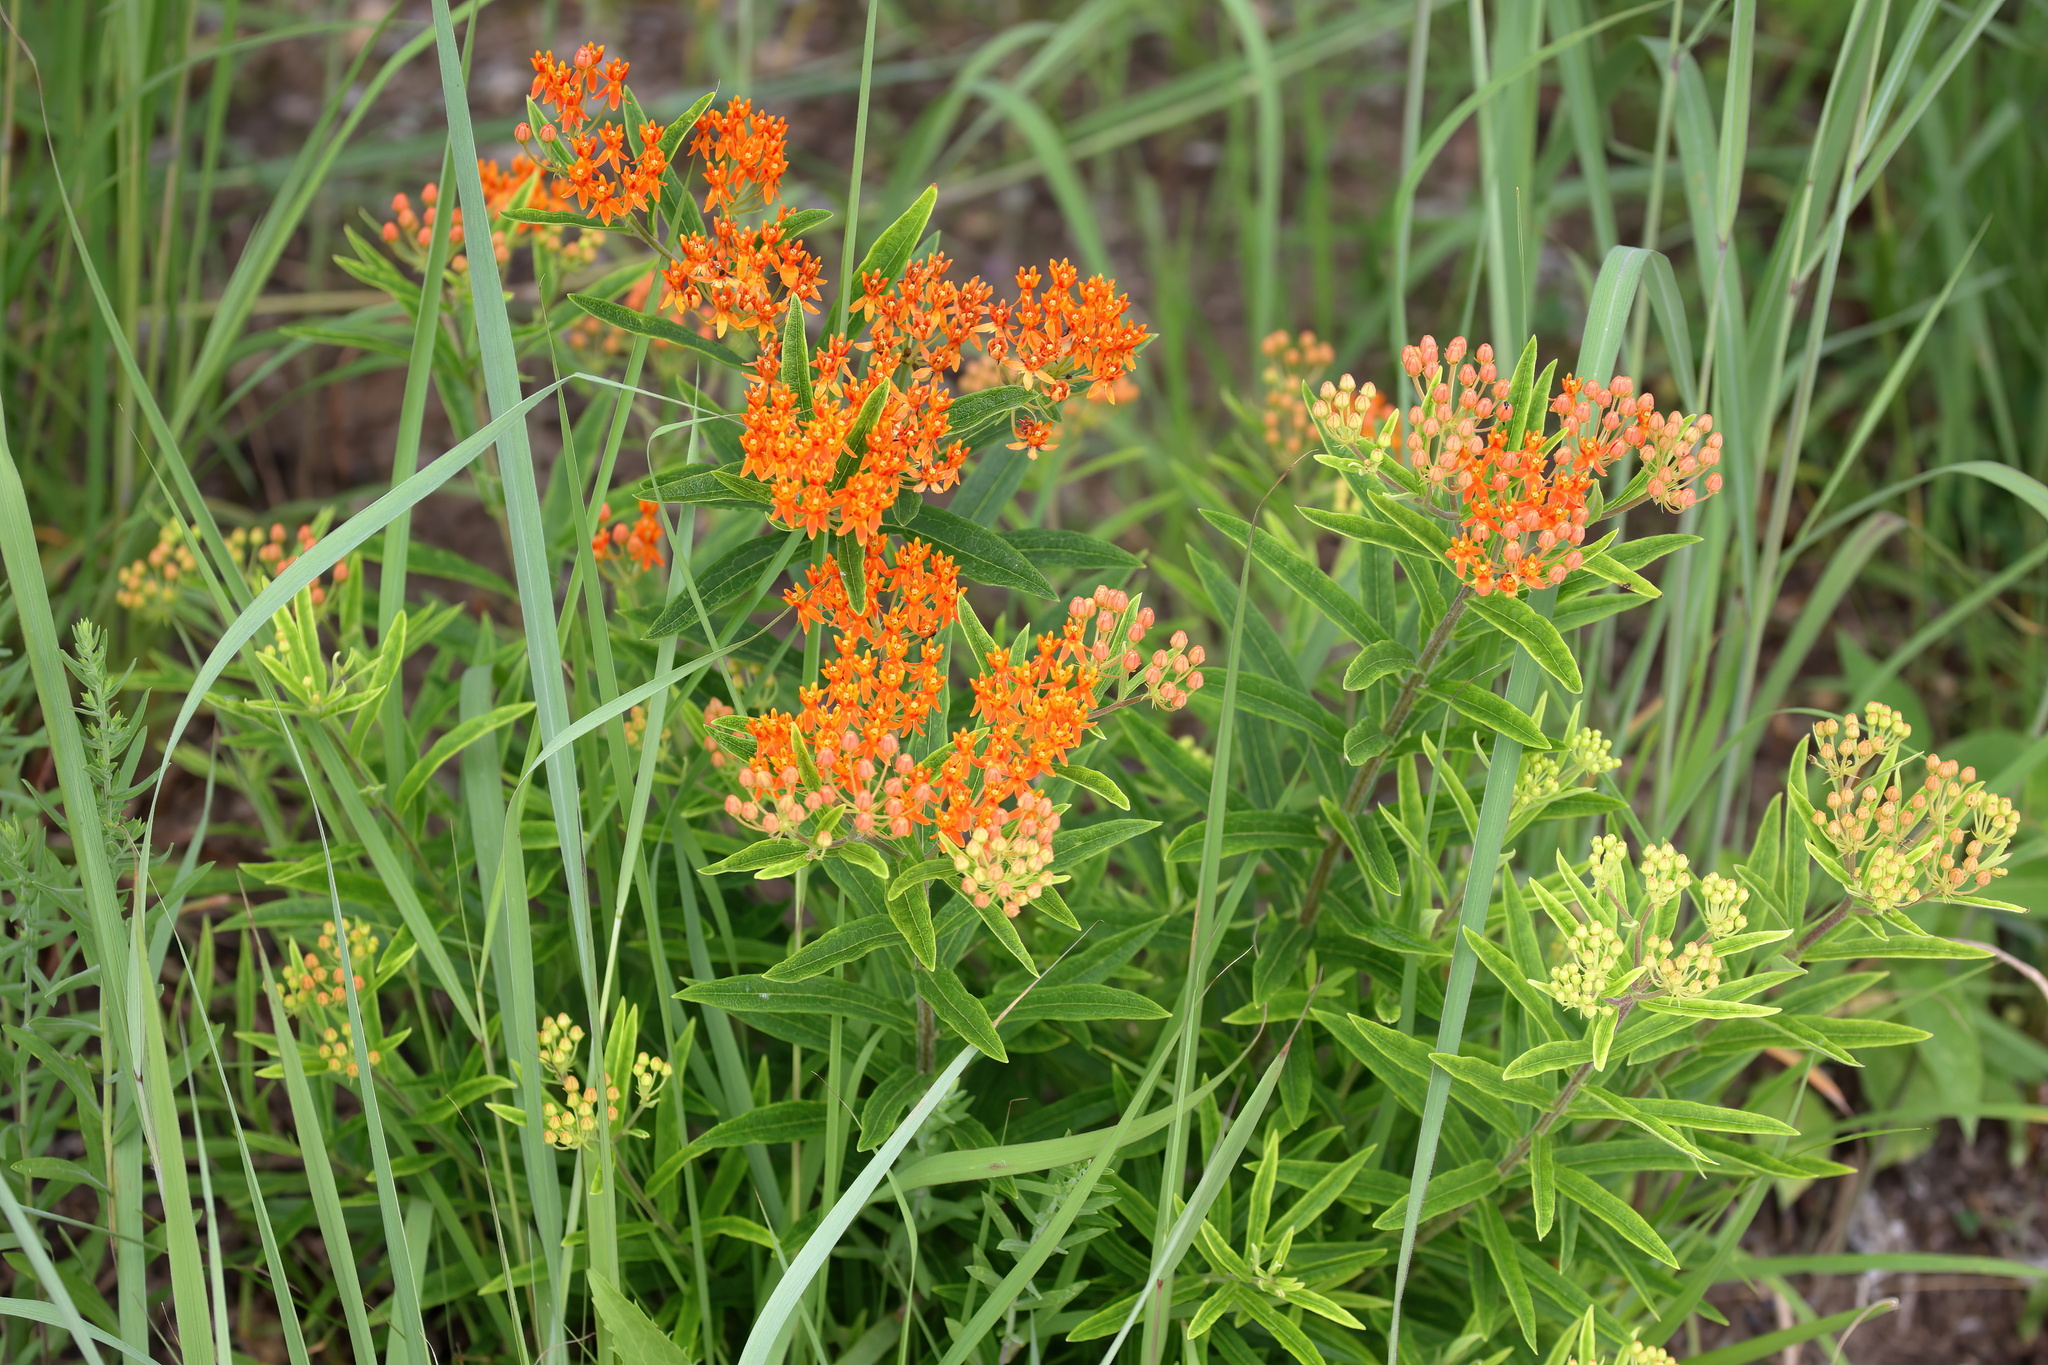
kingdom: Plantae
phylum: Tracheophyta
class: Magnoliopsida
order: Gentianales
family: Apocynaceae
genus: Asclepias
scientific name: Asclepias tuberosa
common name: Butterfly milkweed
